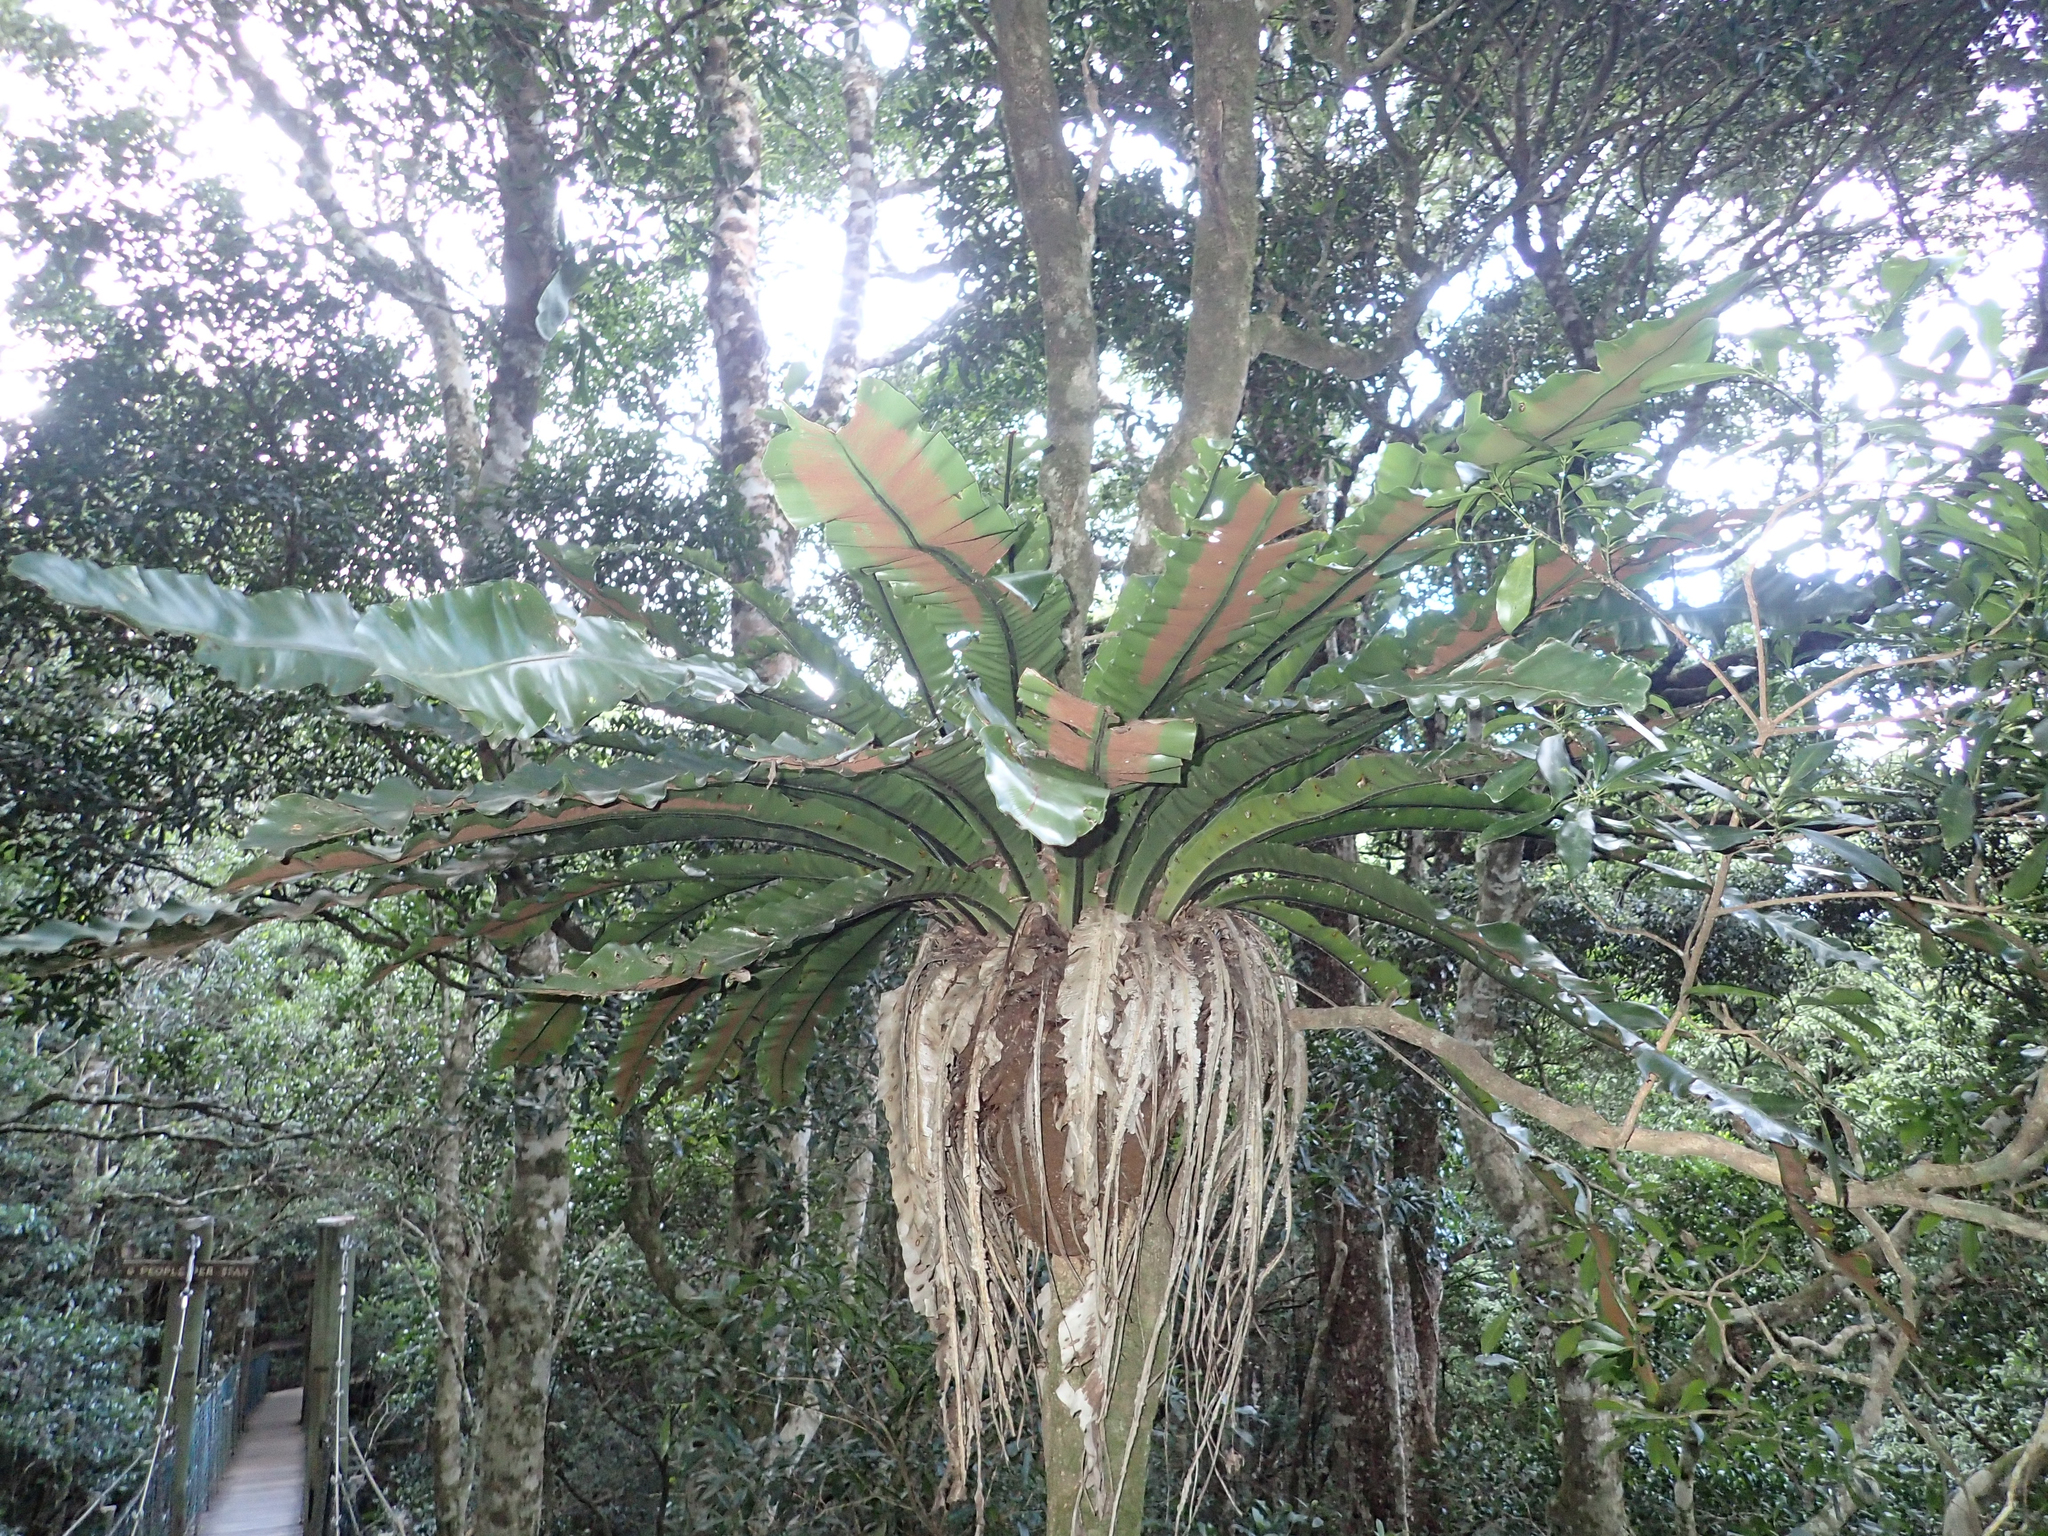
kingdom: Plantae
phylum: Tracheophyta
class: Polypodiopsida
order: Polypodiales
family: Aspleniaceae
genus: Asplenium
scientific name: Asplenium australasicum
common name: Bird's-nest fern
